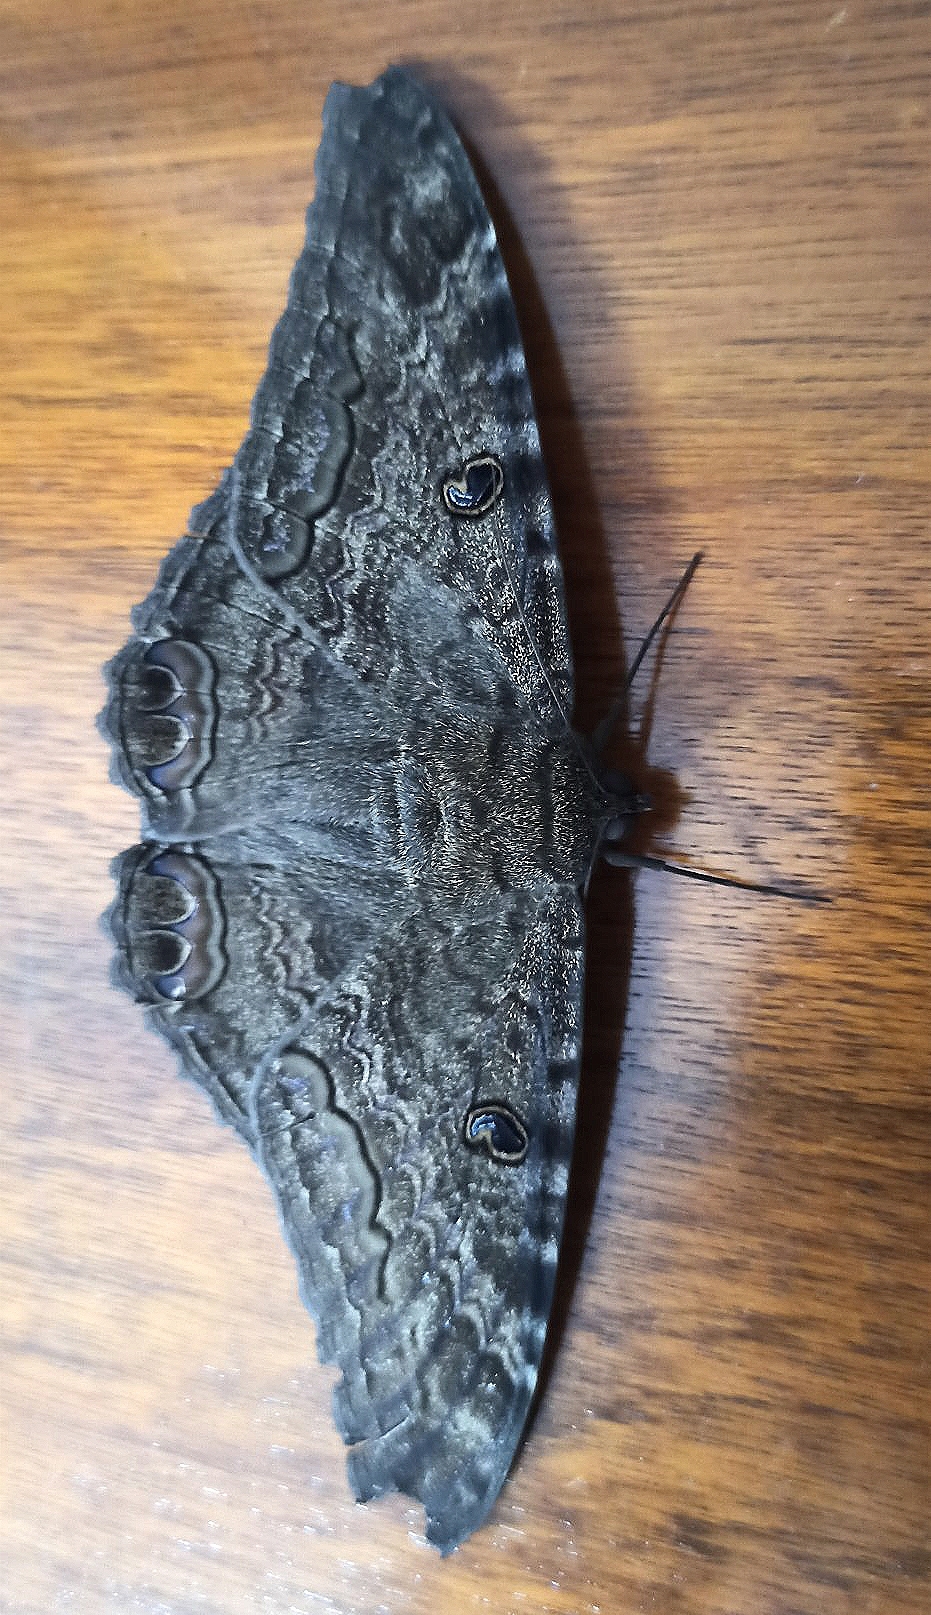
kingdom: Animalia
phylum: Arthropoda
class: Insecta
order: Lepidoptera
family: Erebidae
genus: Ascalapha
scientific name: Ascalapha odorata
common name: Black witch
